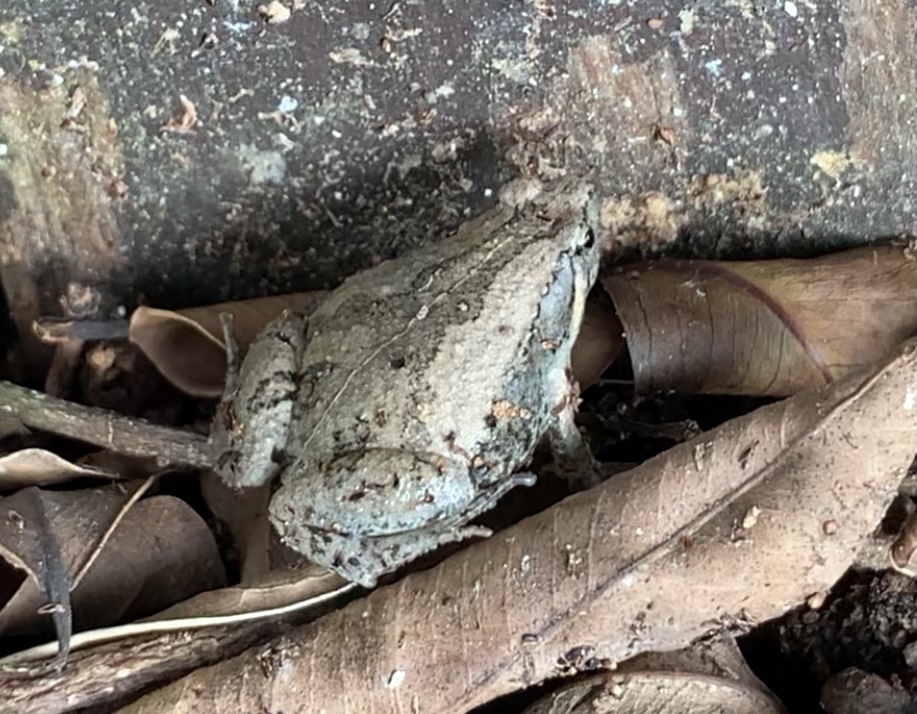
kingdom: Animalia
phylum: Chordata
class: Amphibia
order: Anura
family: Microhylidae
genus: Microhyla
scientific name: Microhyla fissipes
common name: Ornate narrow-mouthed frog
